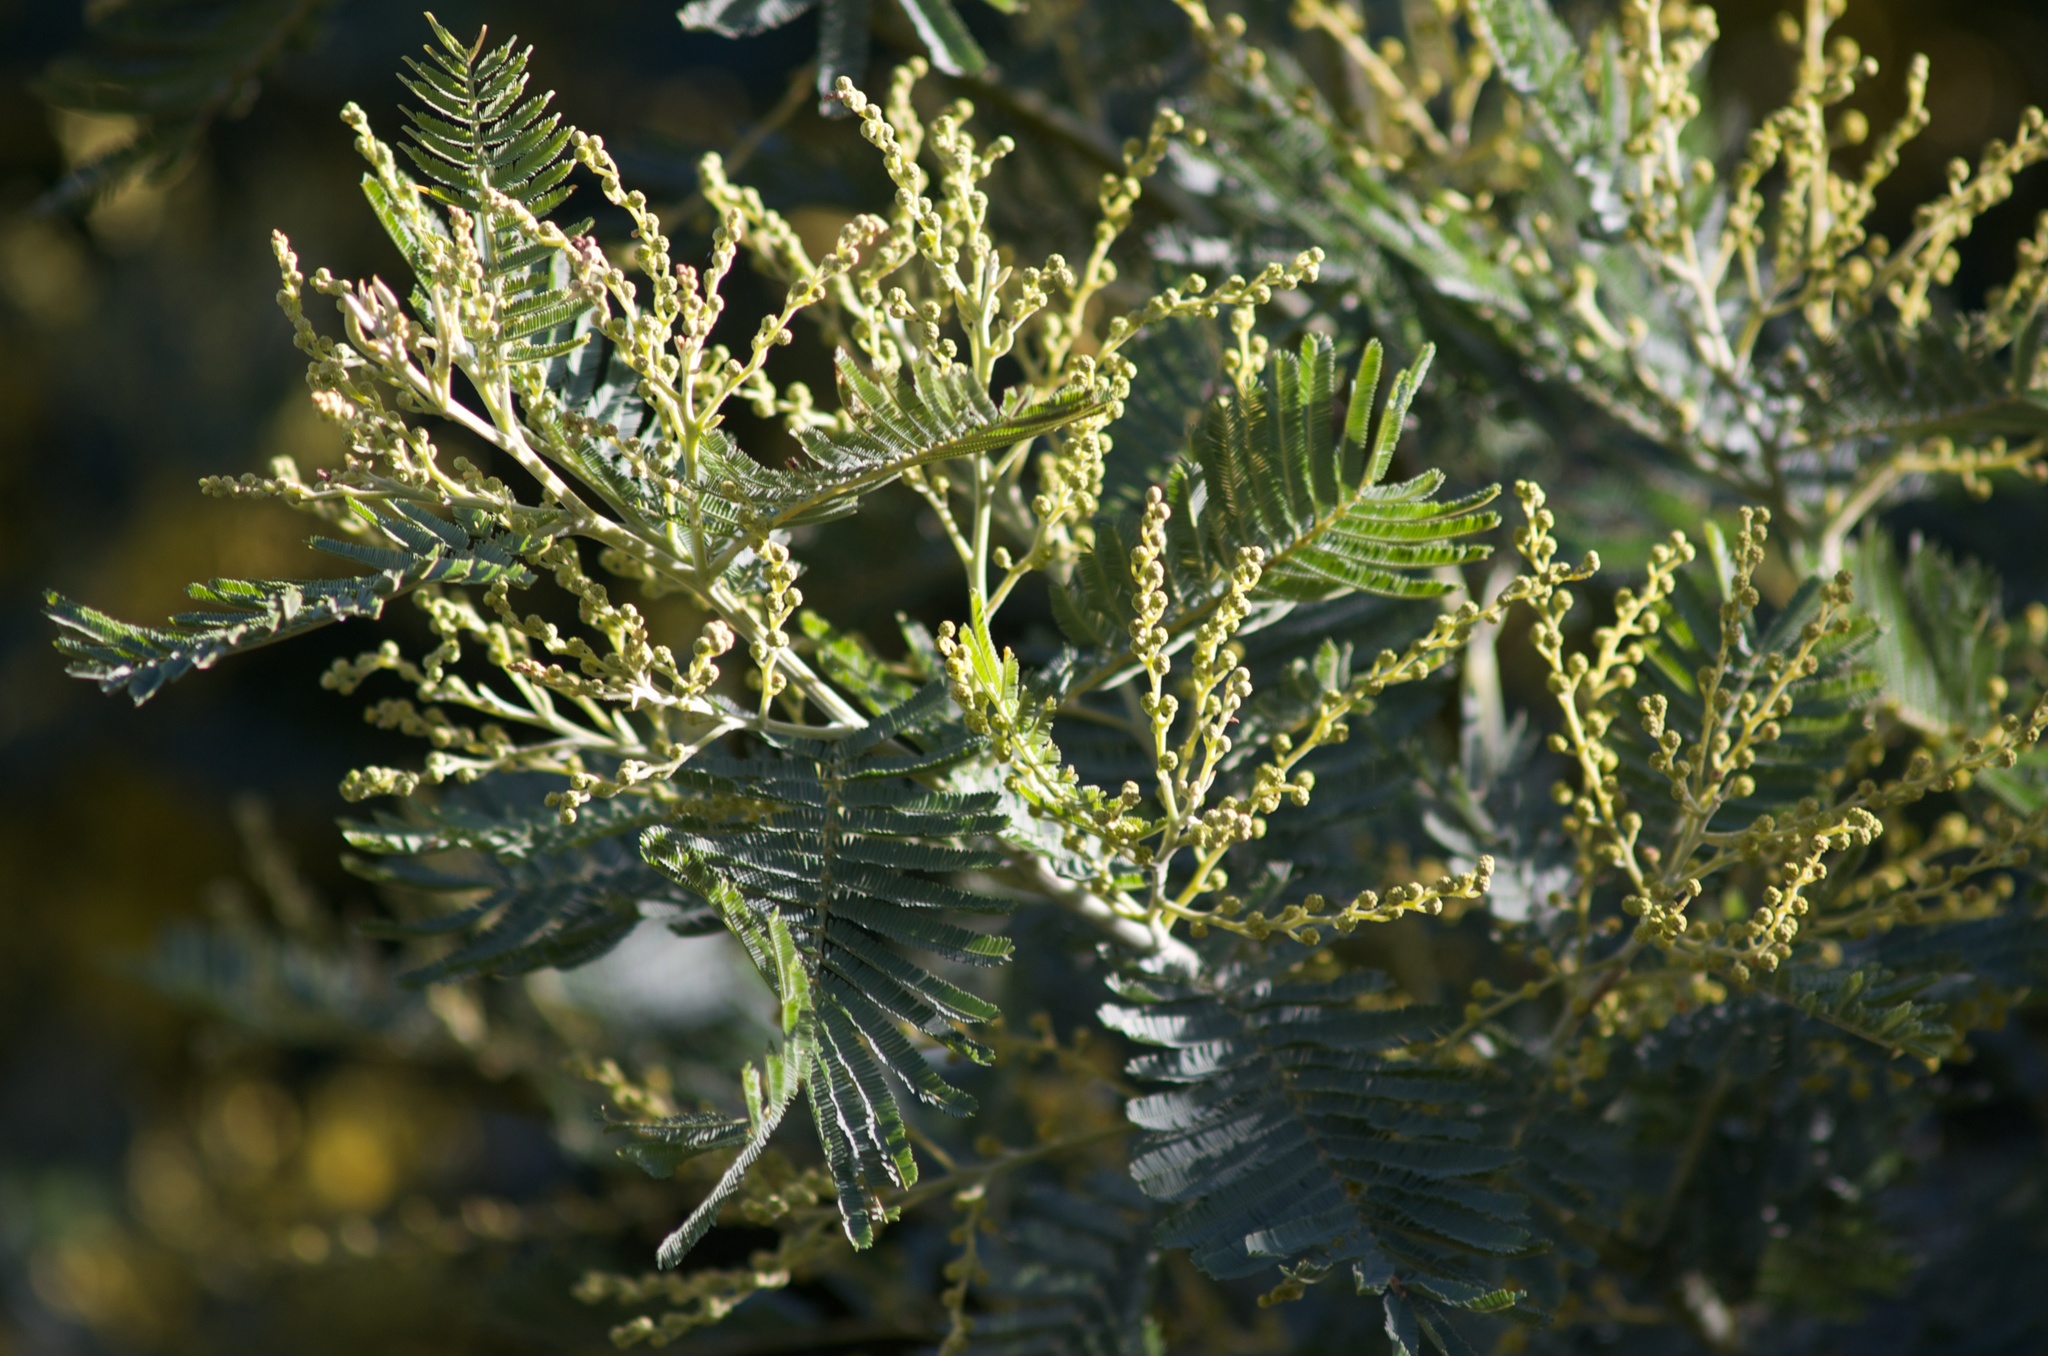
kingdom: Plantae
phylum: Tracheophyta
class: Magnoliopsida
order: Fabales
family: Fabaceae
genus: Acacia
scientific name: Acacia dealbata
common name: Silver wattle
